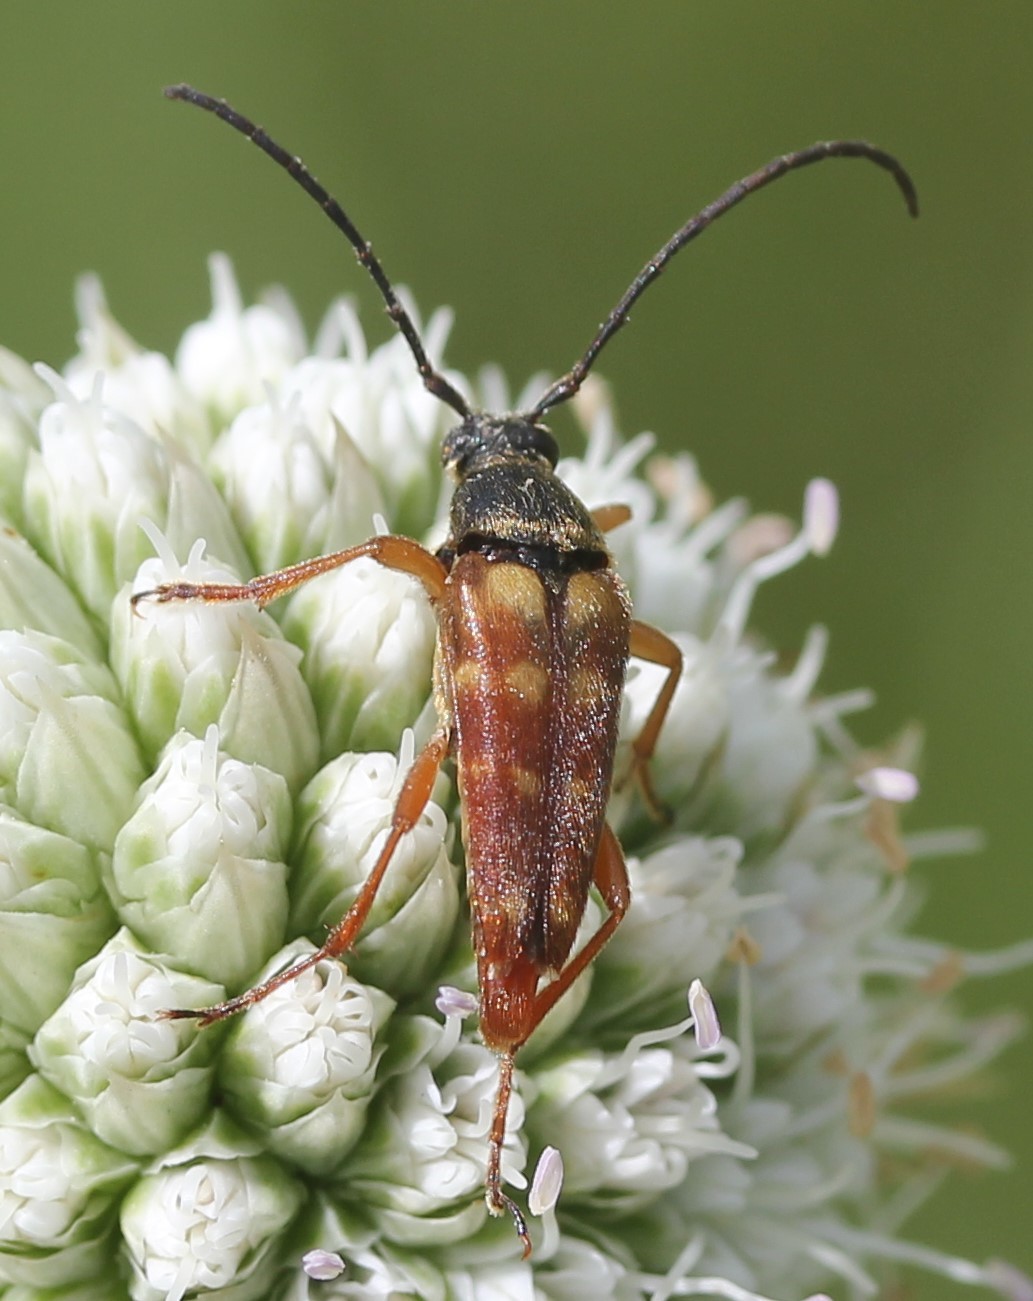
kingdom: Animalia
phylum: Arthropoda
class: Insecta
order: Coleoptera
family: Cerambycidae
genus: Typocerus
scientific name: Typocerus velutinus
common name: Banded longhorn beetle
